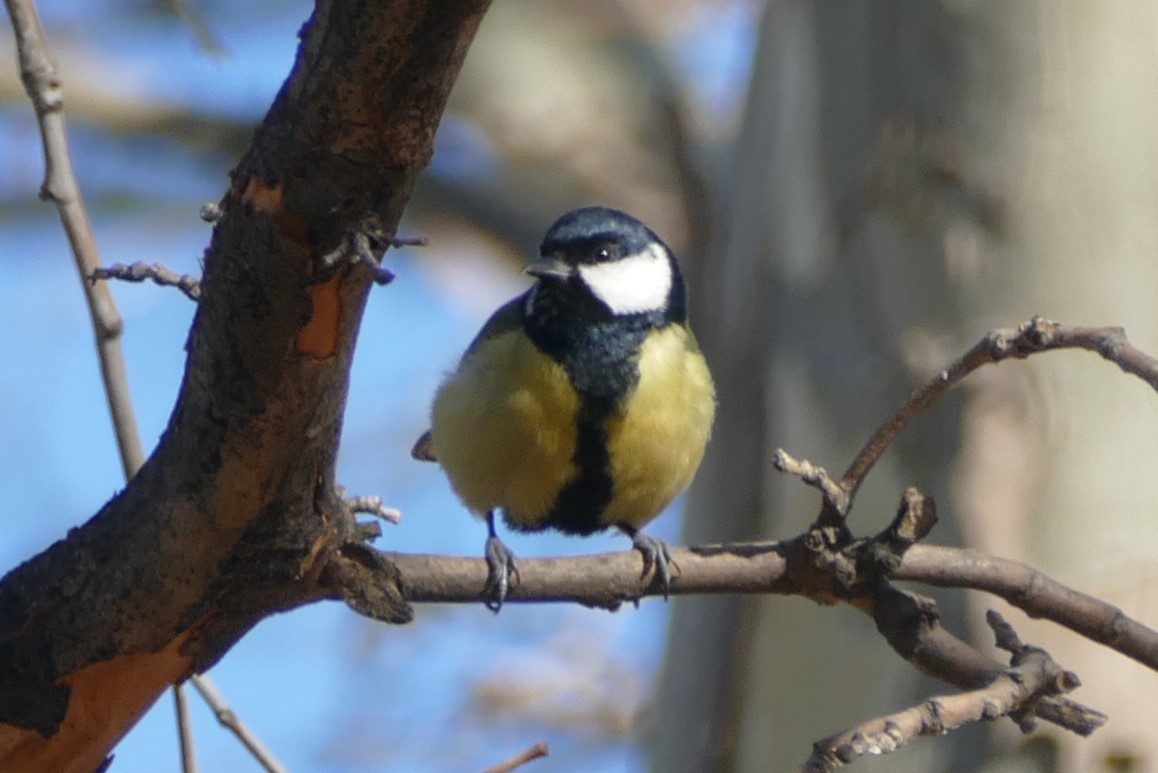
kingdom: Animalia
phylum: Chordata
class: Aves
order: Passeriformes
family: Paridae
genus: Parus
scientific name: Parus major
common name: Great tit
